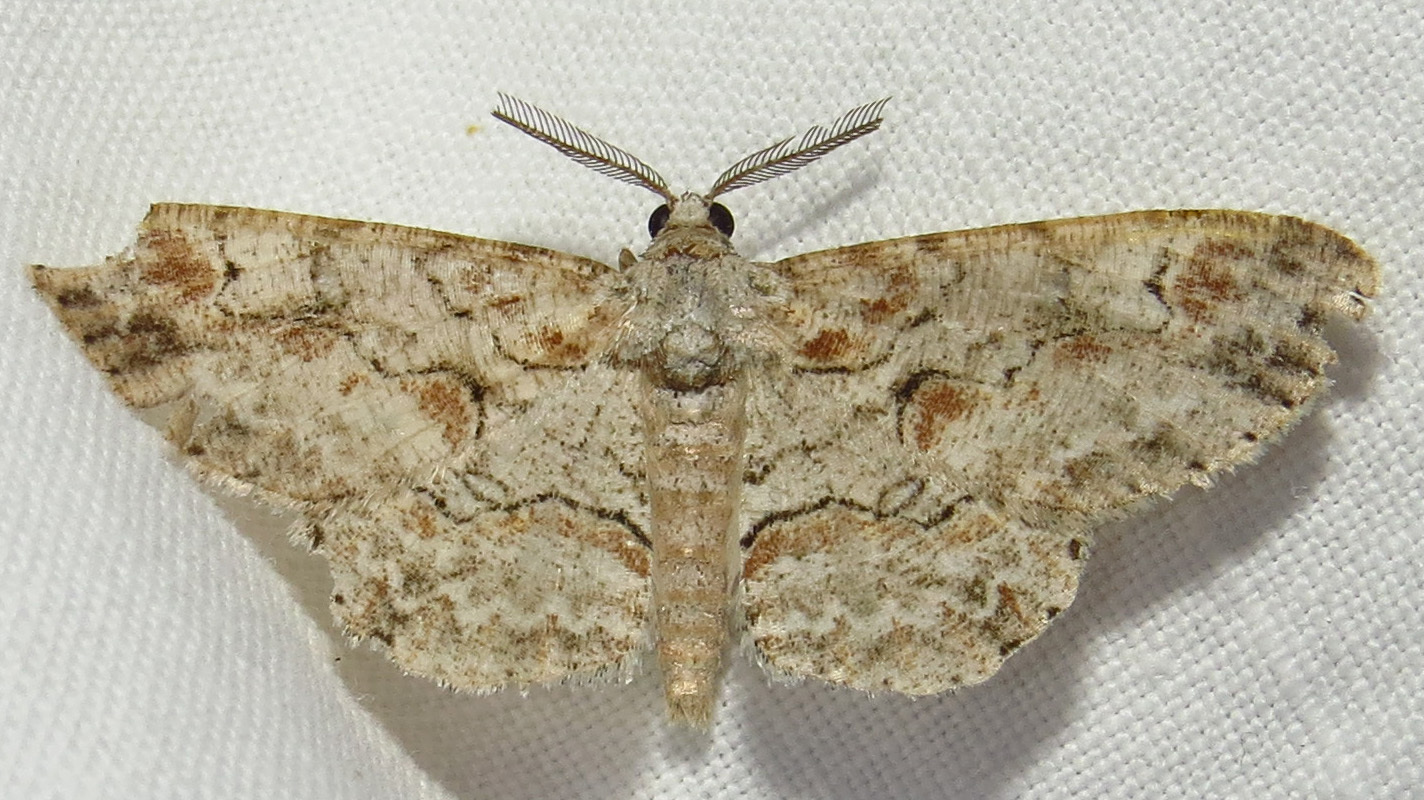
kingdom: Animalia
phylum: Arthropoda
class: Insecta
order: Lepidoptera
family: Geometridae
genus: Iridopsis
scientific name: Iridopsis defectaria
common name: Brown-shaded gray
